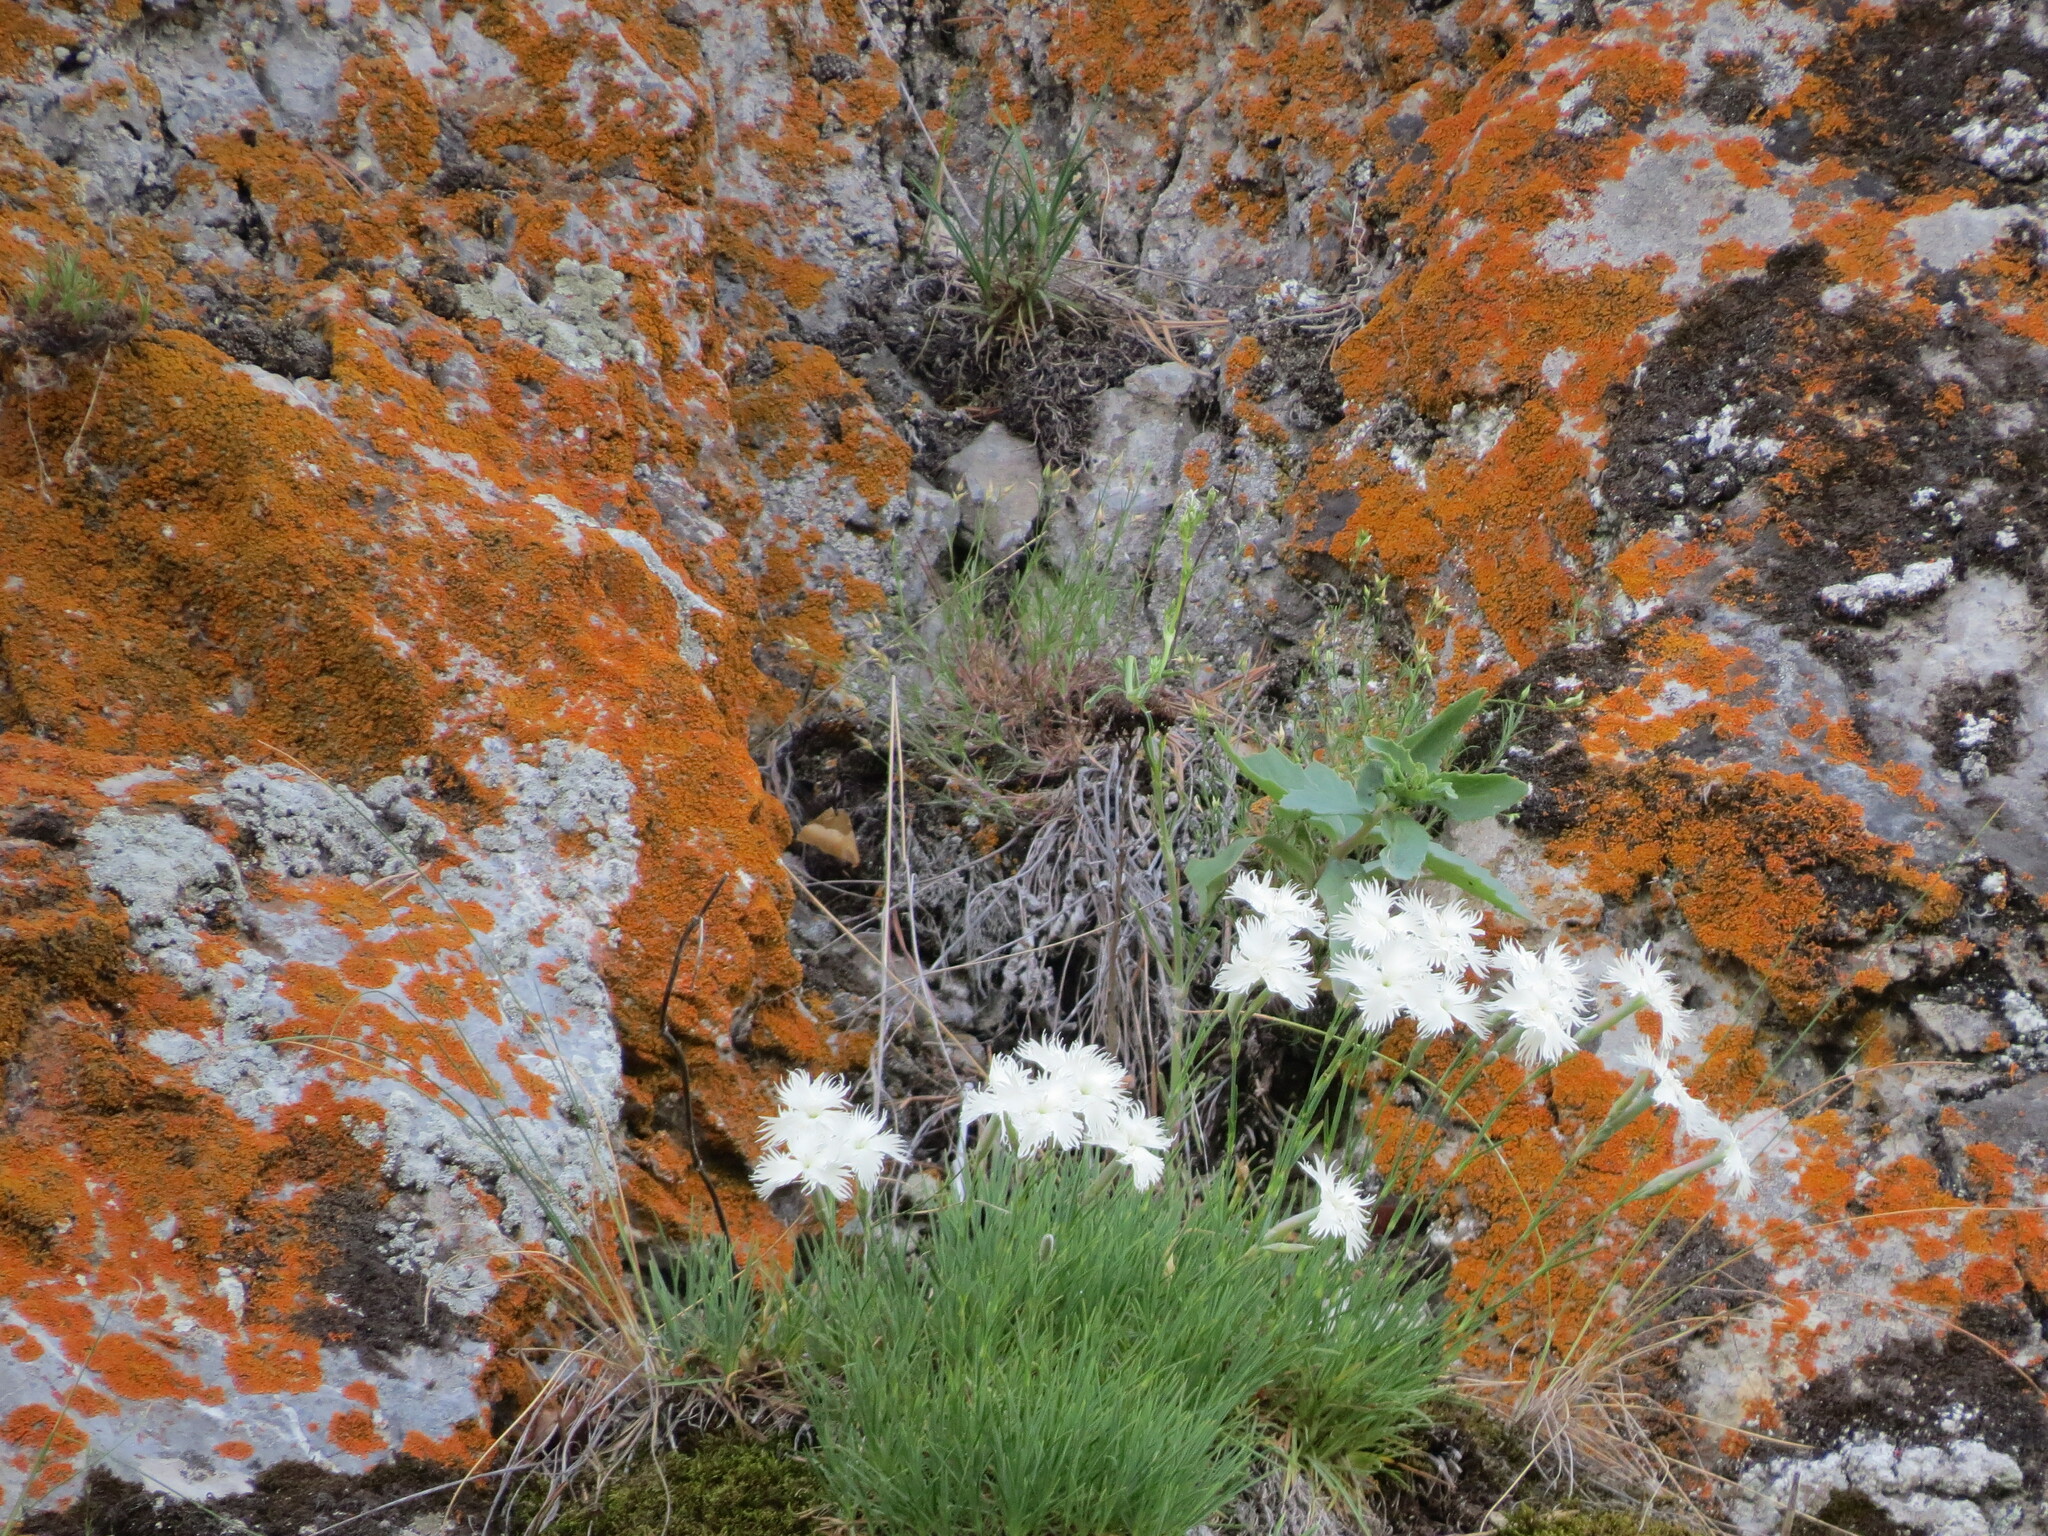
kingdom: Plantae
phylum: Tracheophyta
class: Magnoliopsida
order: Caryophyllales
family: Caryophyllaceae
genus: Dianthus
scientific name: Dianthus acicularis
